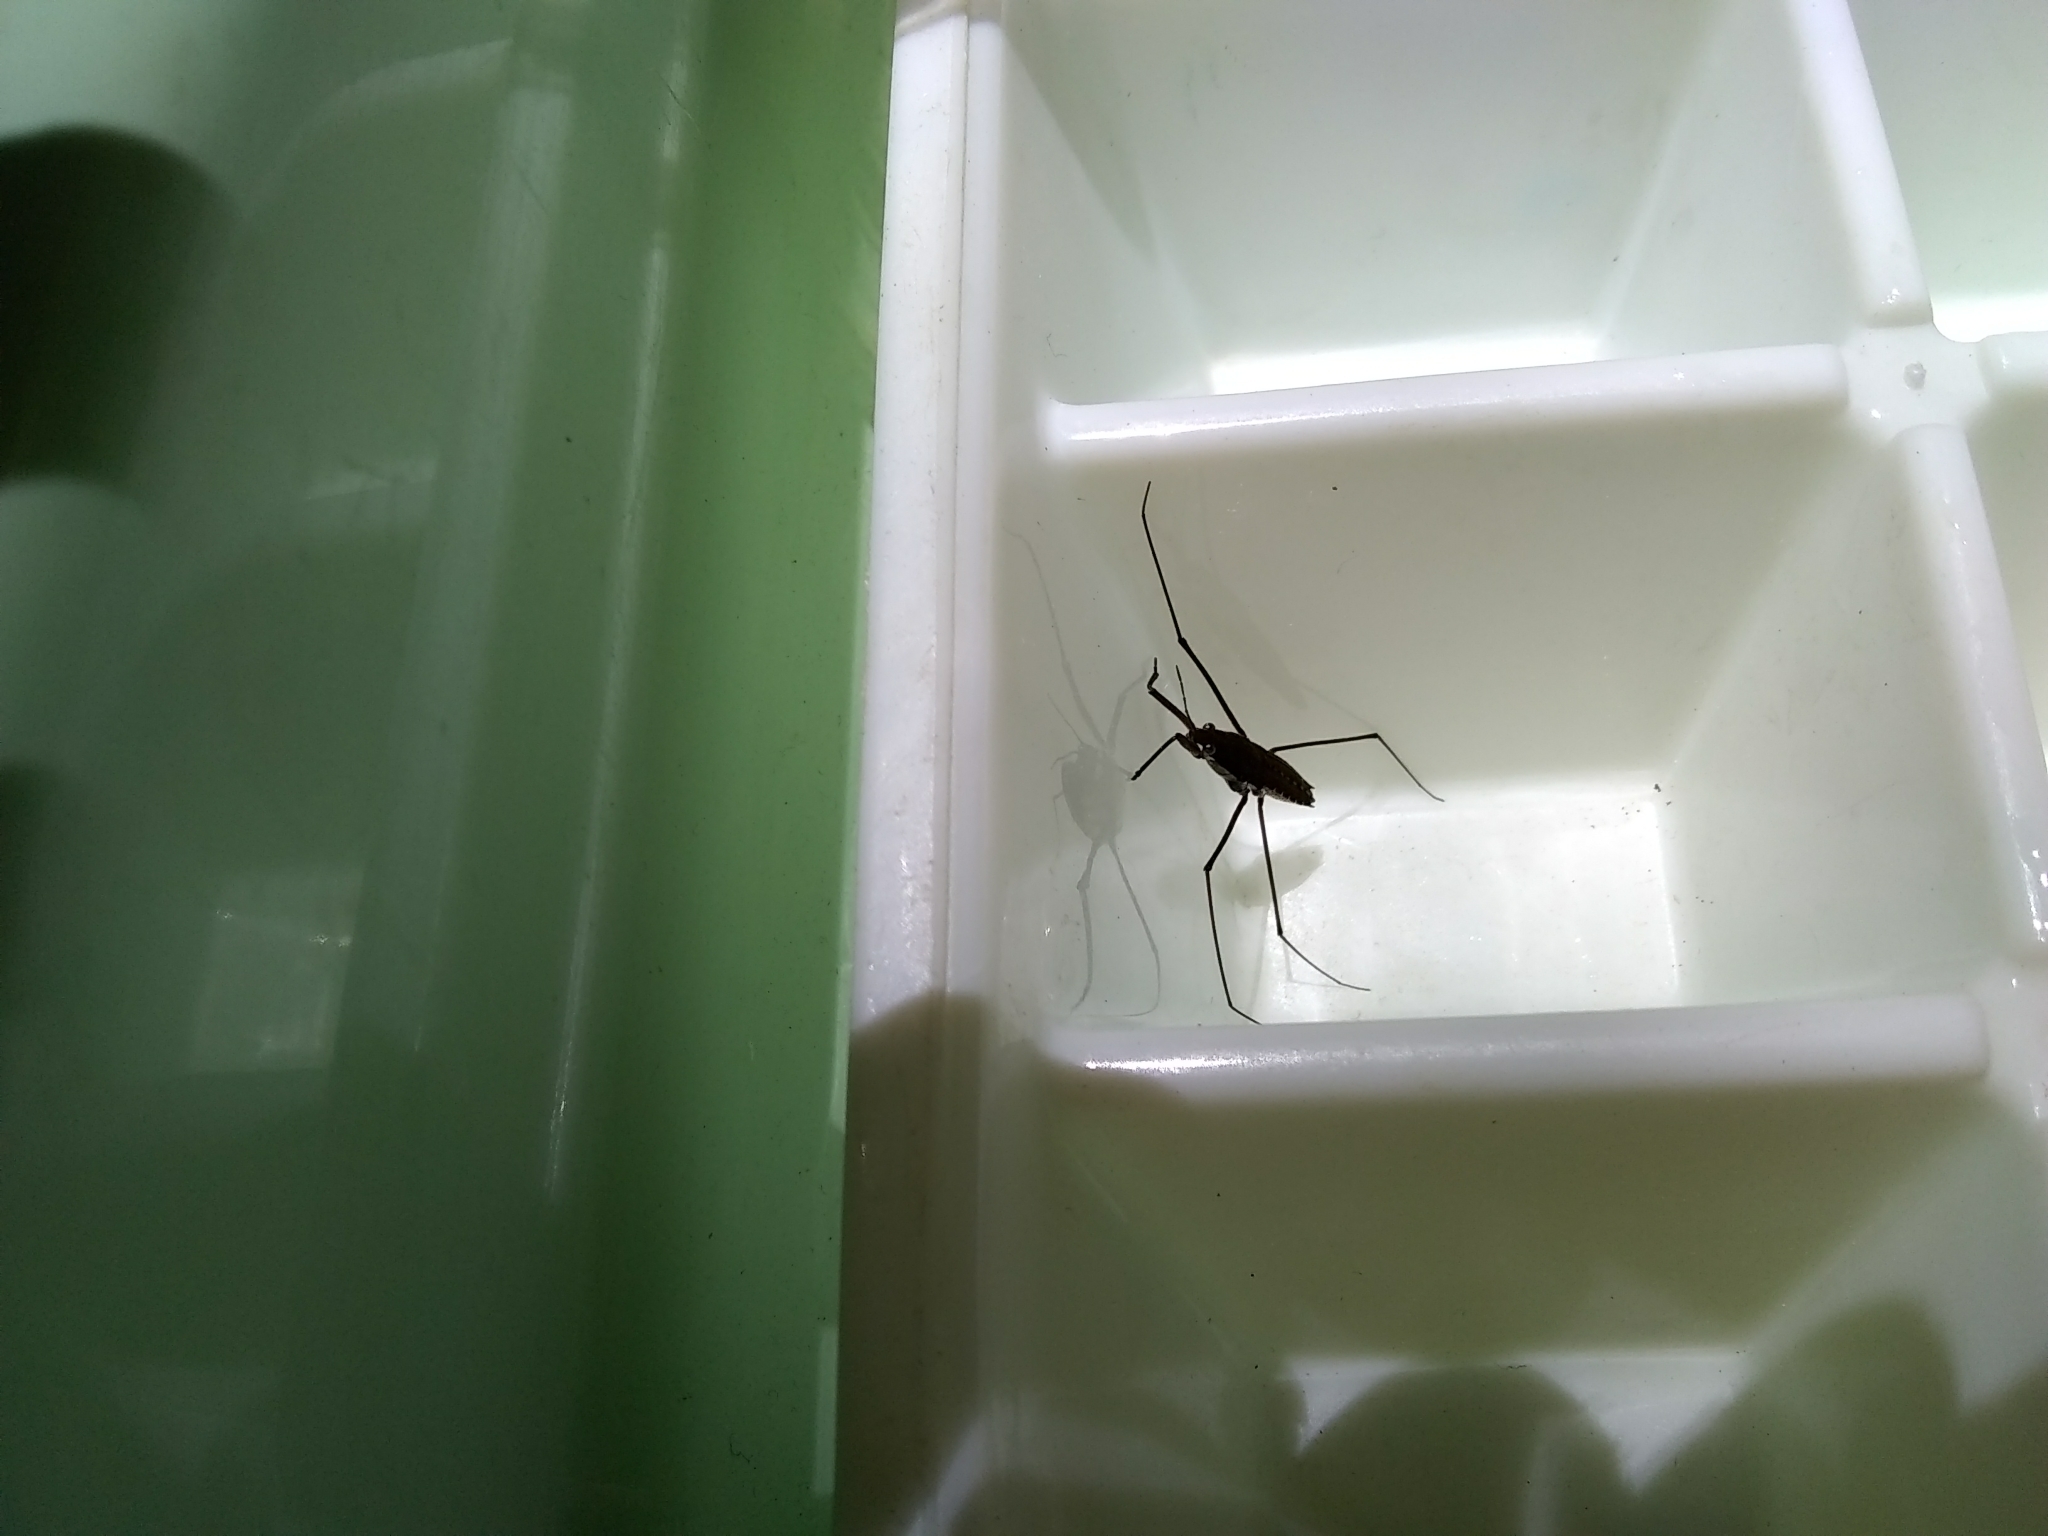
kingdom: Animalia
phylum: Arthropoda
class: Insecta
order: Hemiptera
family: Gerridae
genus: Aquarius
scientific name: Aquarius remigis
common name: Common water strider
